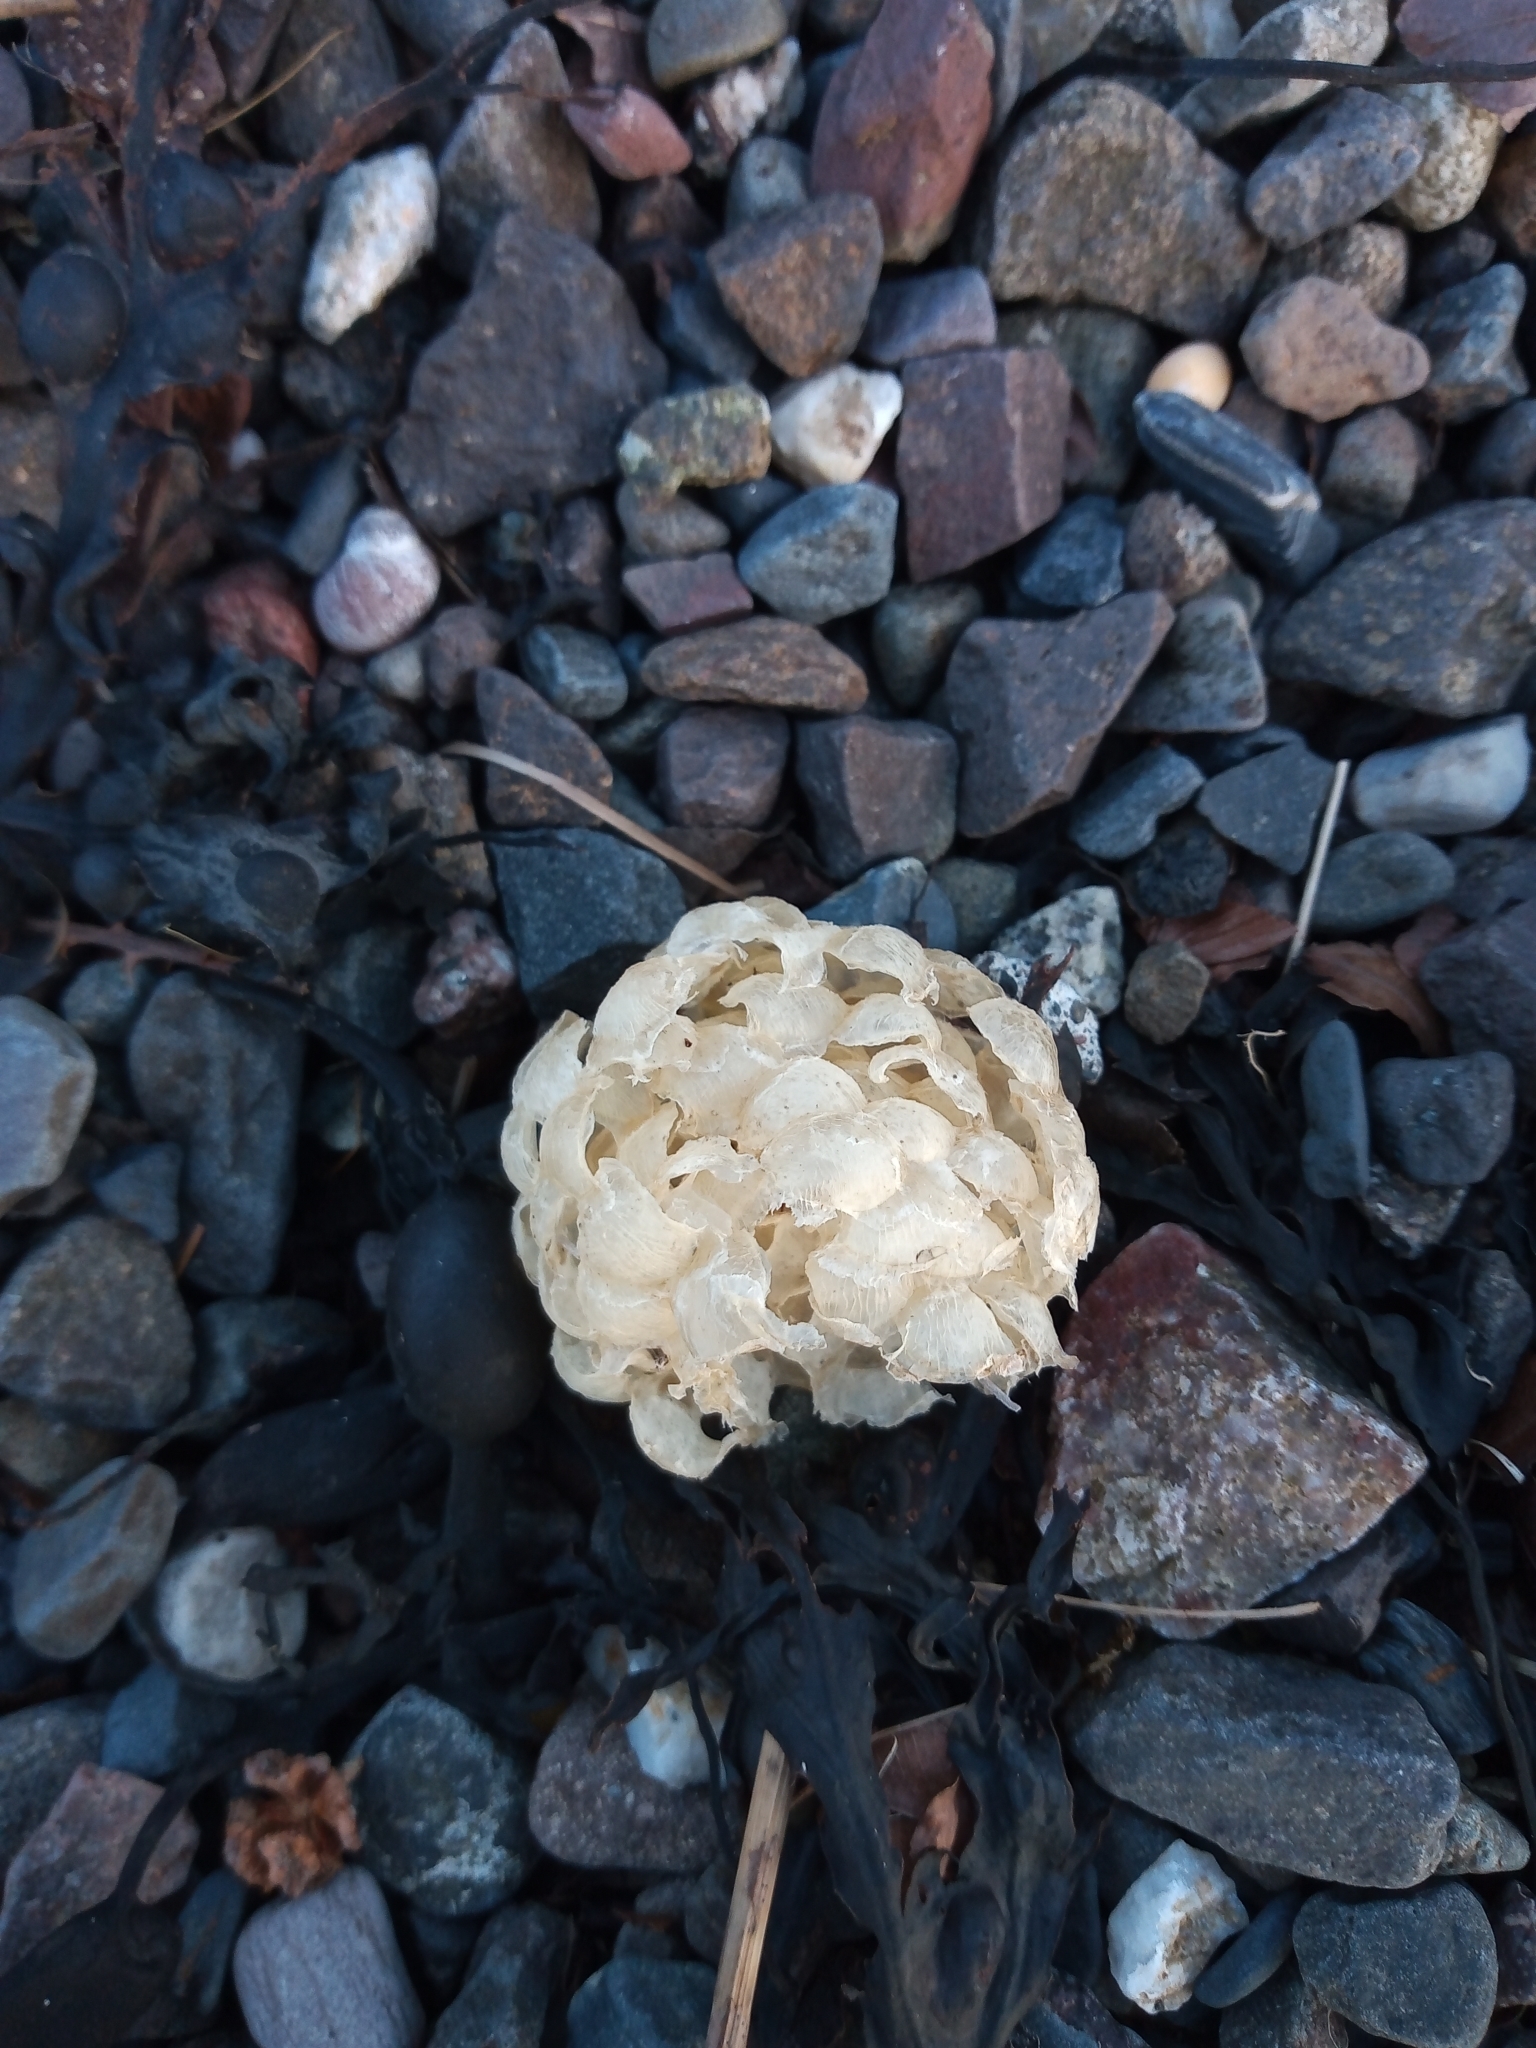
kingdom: Animalia
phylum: Mollusca
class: Gastropoda
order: Neogastropoda
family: Buccinidae
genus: Buccinum
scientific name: Buccinum undatum
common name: Common whelk
